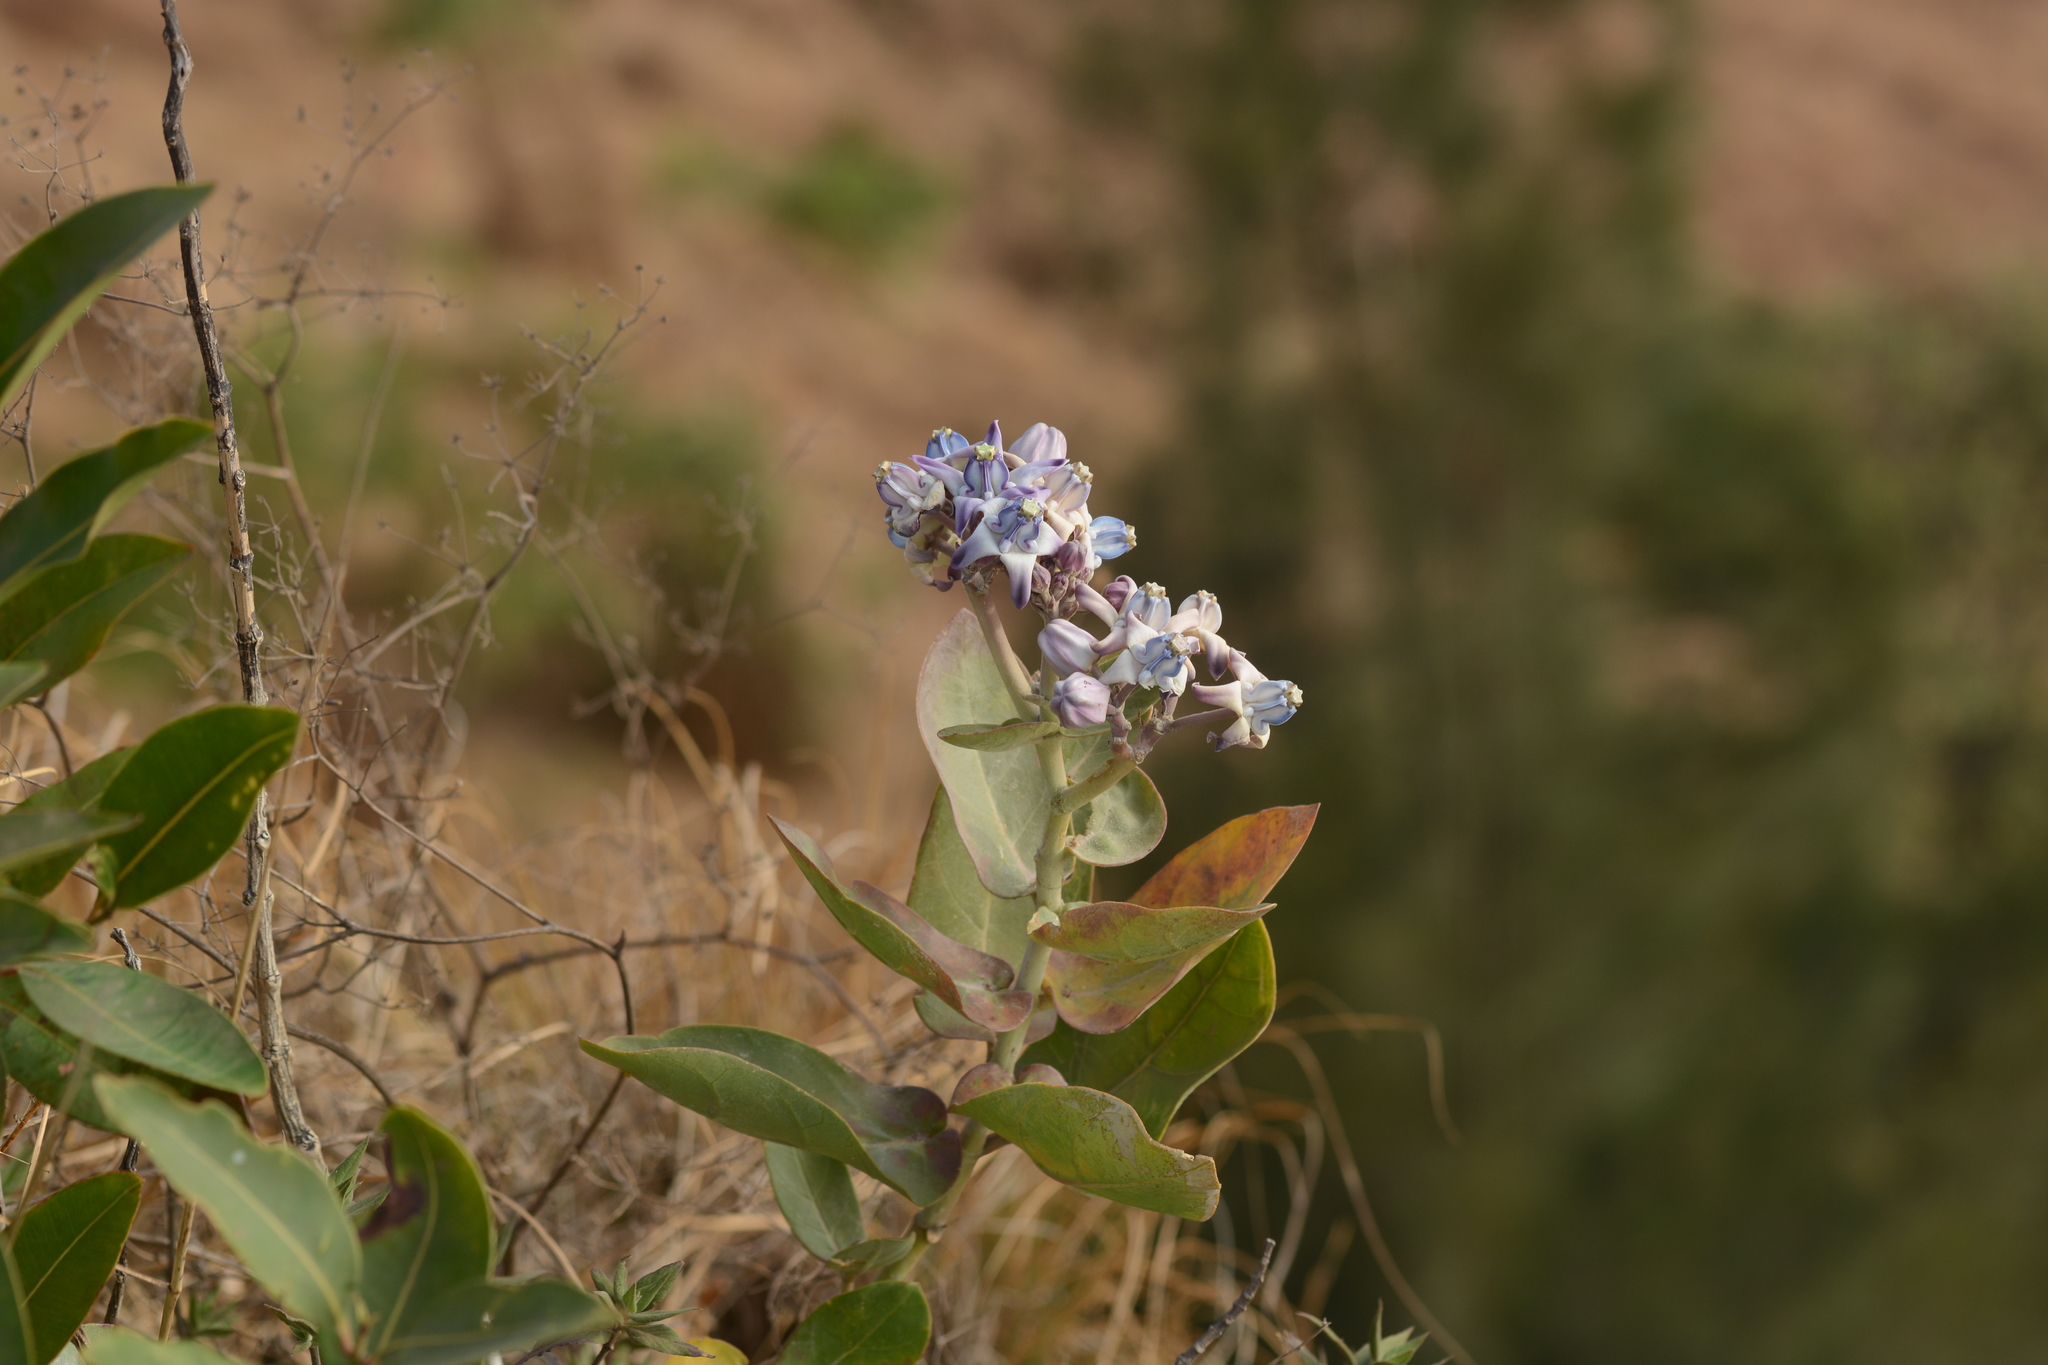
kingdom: Plantae
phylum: Tracheophyta
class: Magnoliopsida
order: Gentianales
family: Apocynaceae
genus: Calotropis
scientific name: Calotropis gigantea
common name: Crown flower
